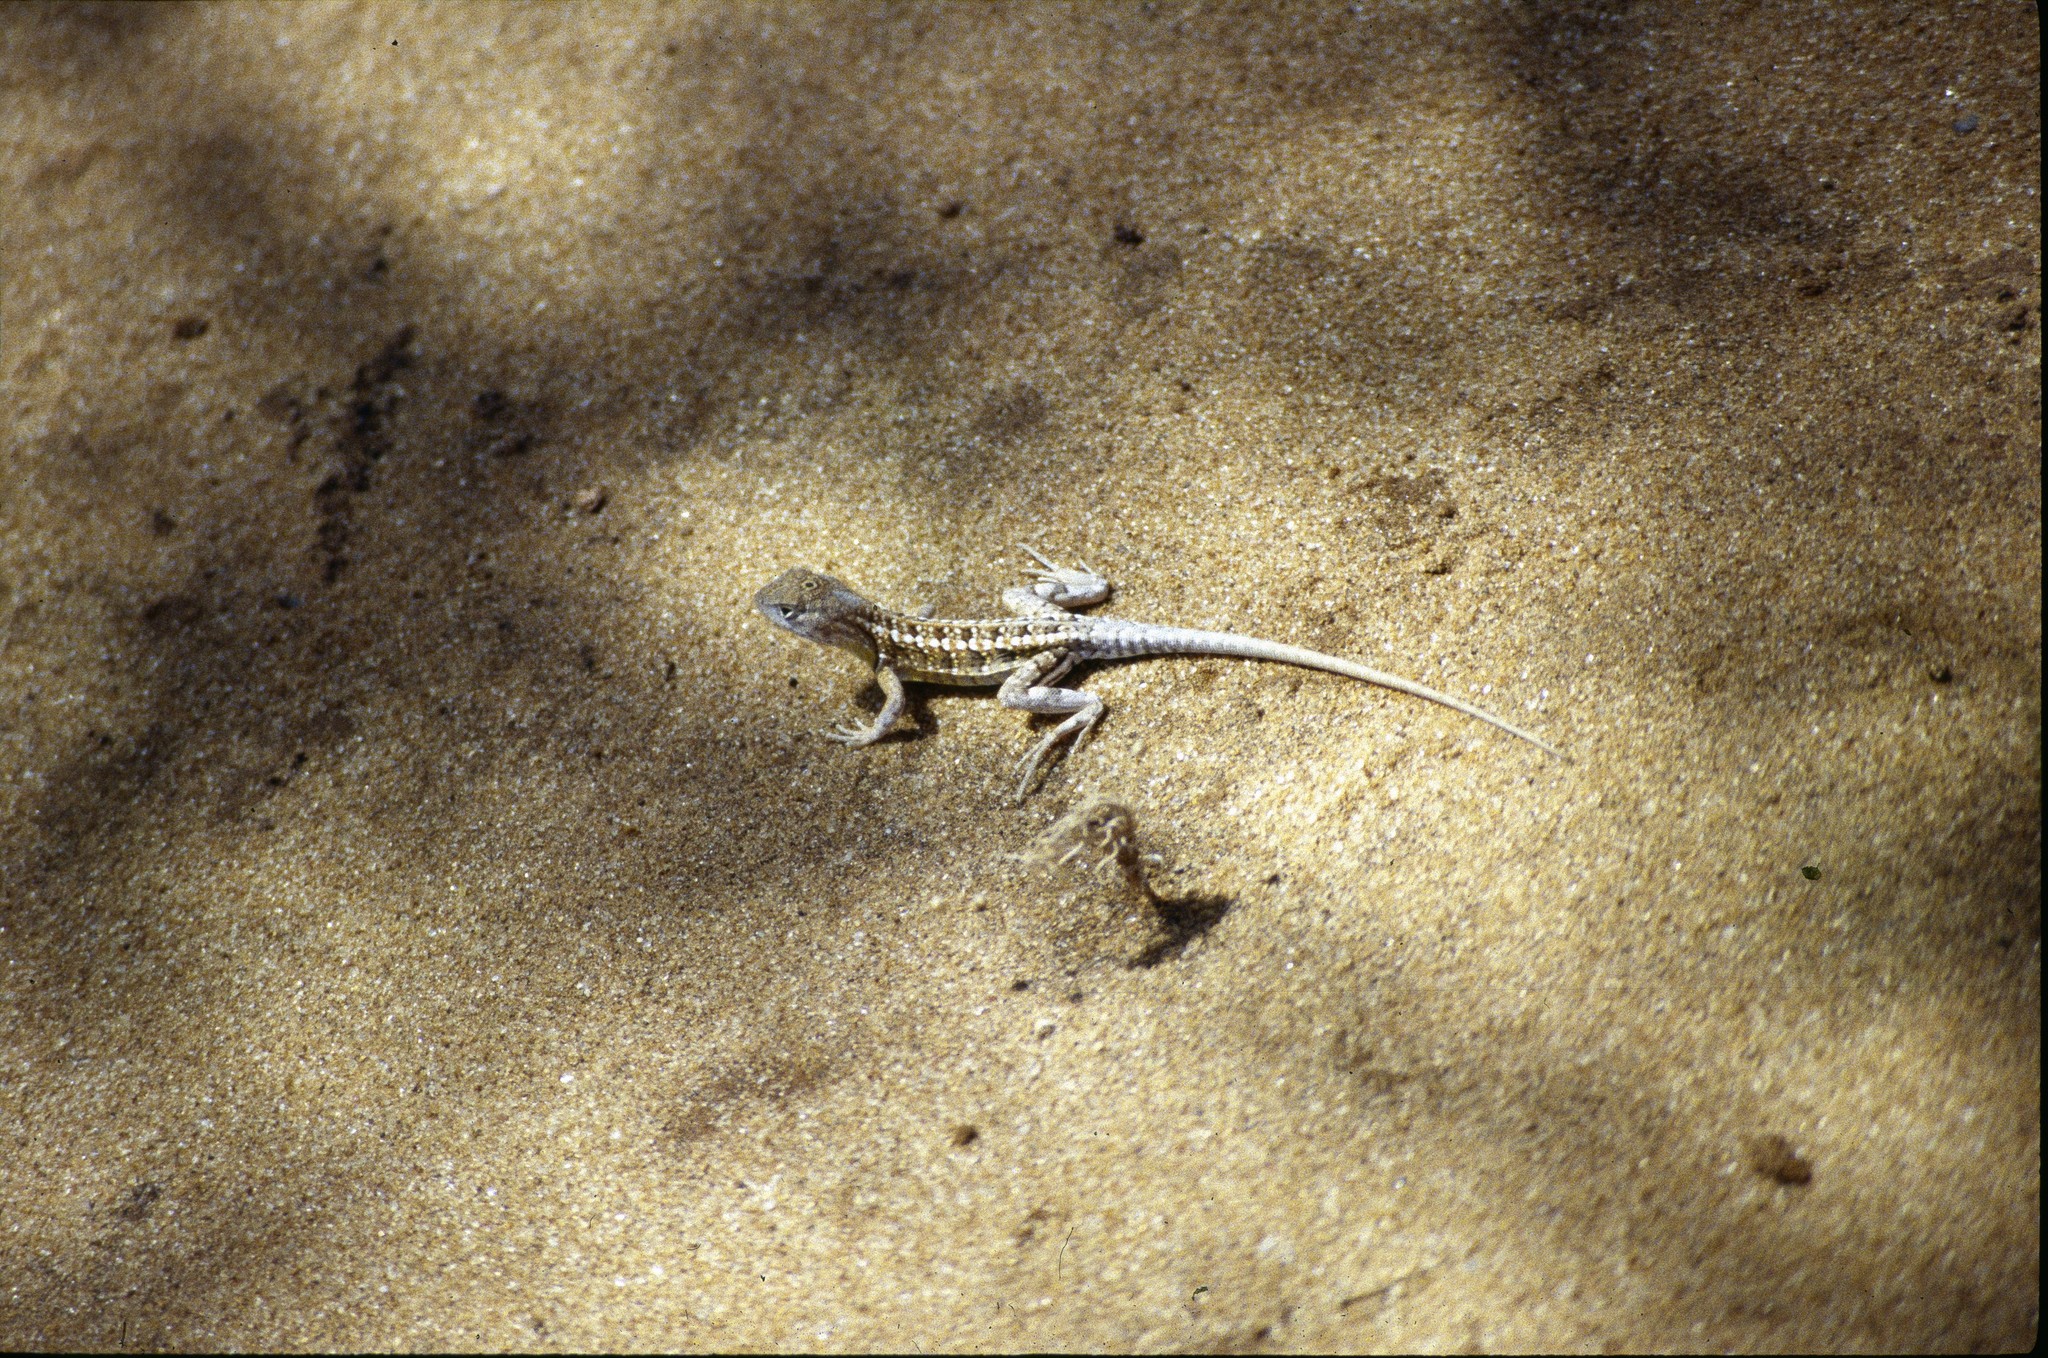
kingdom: Animalia
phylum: Chordata
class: Squamata
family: Opluridae
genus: Chalarodon
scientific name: Chalarodon madagascariensis
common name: Madagascar iguana
